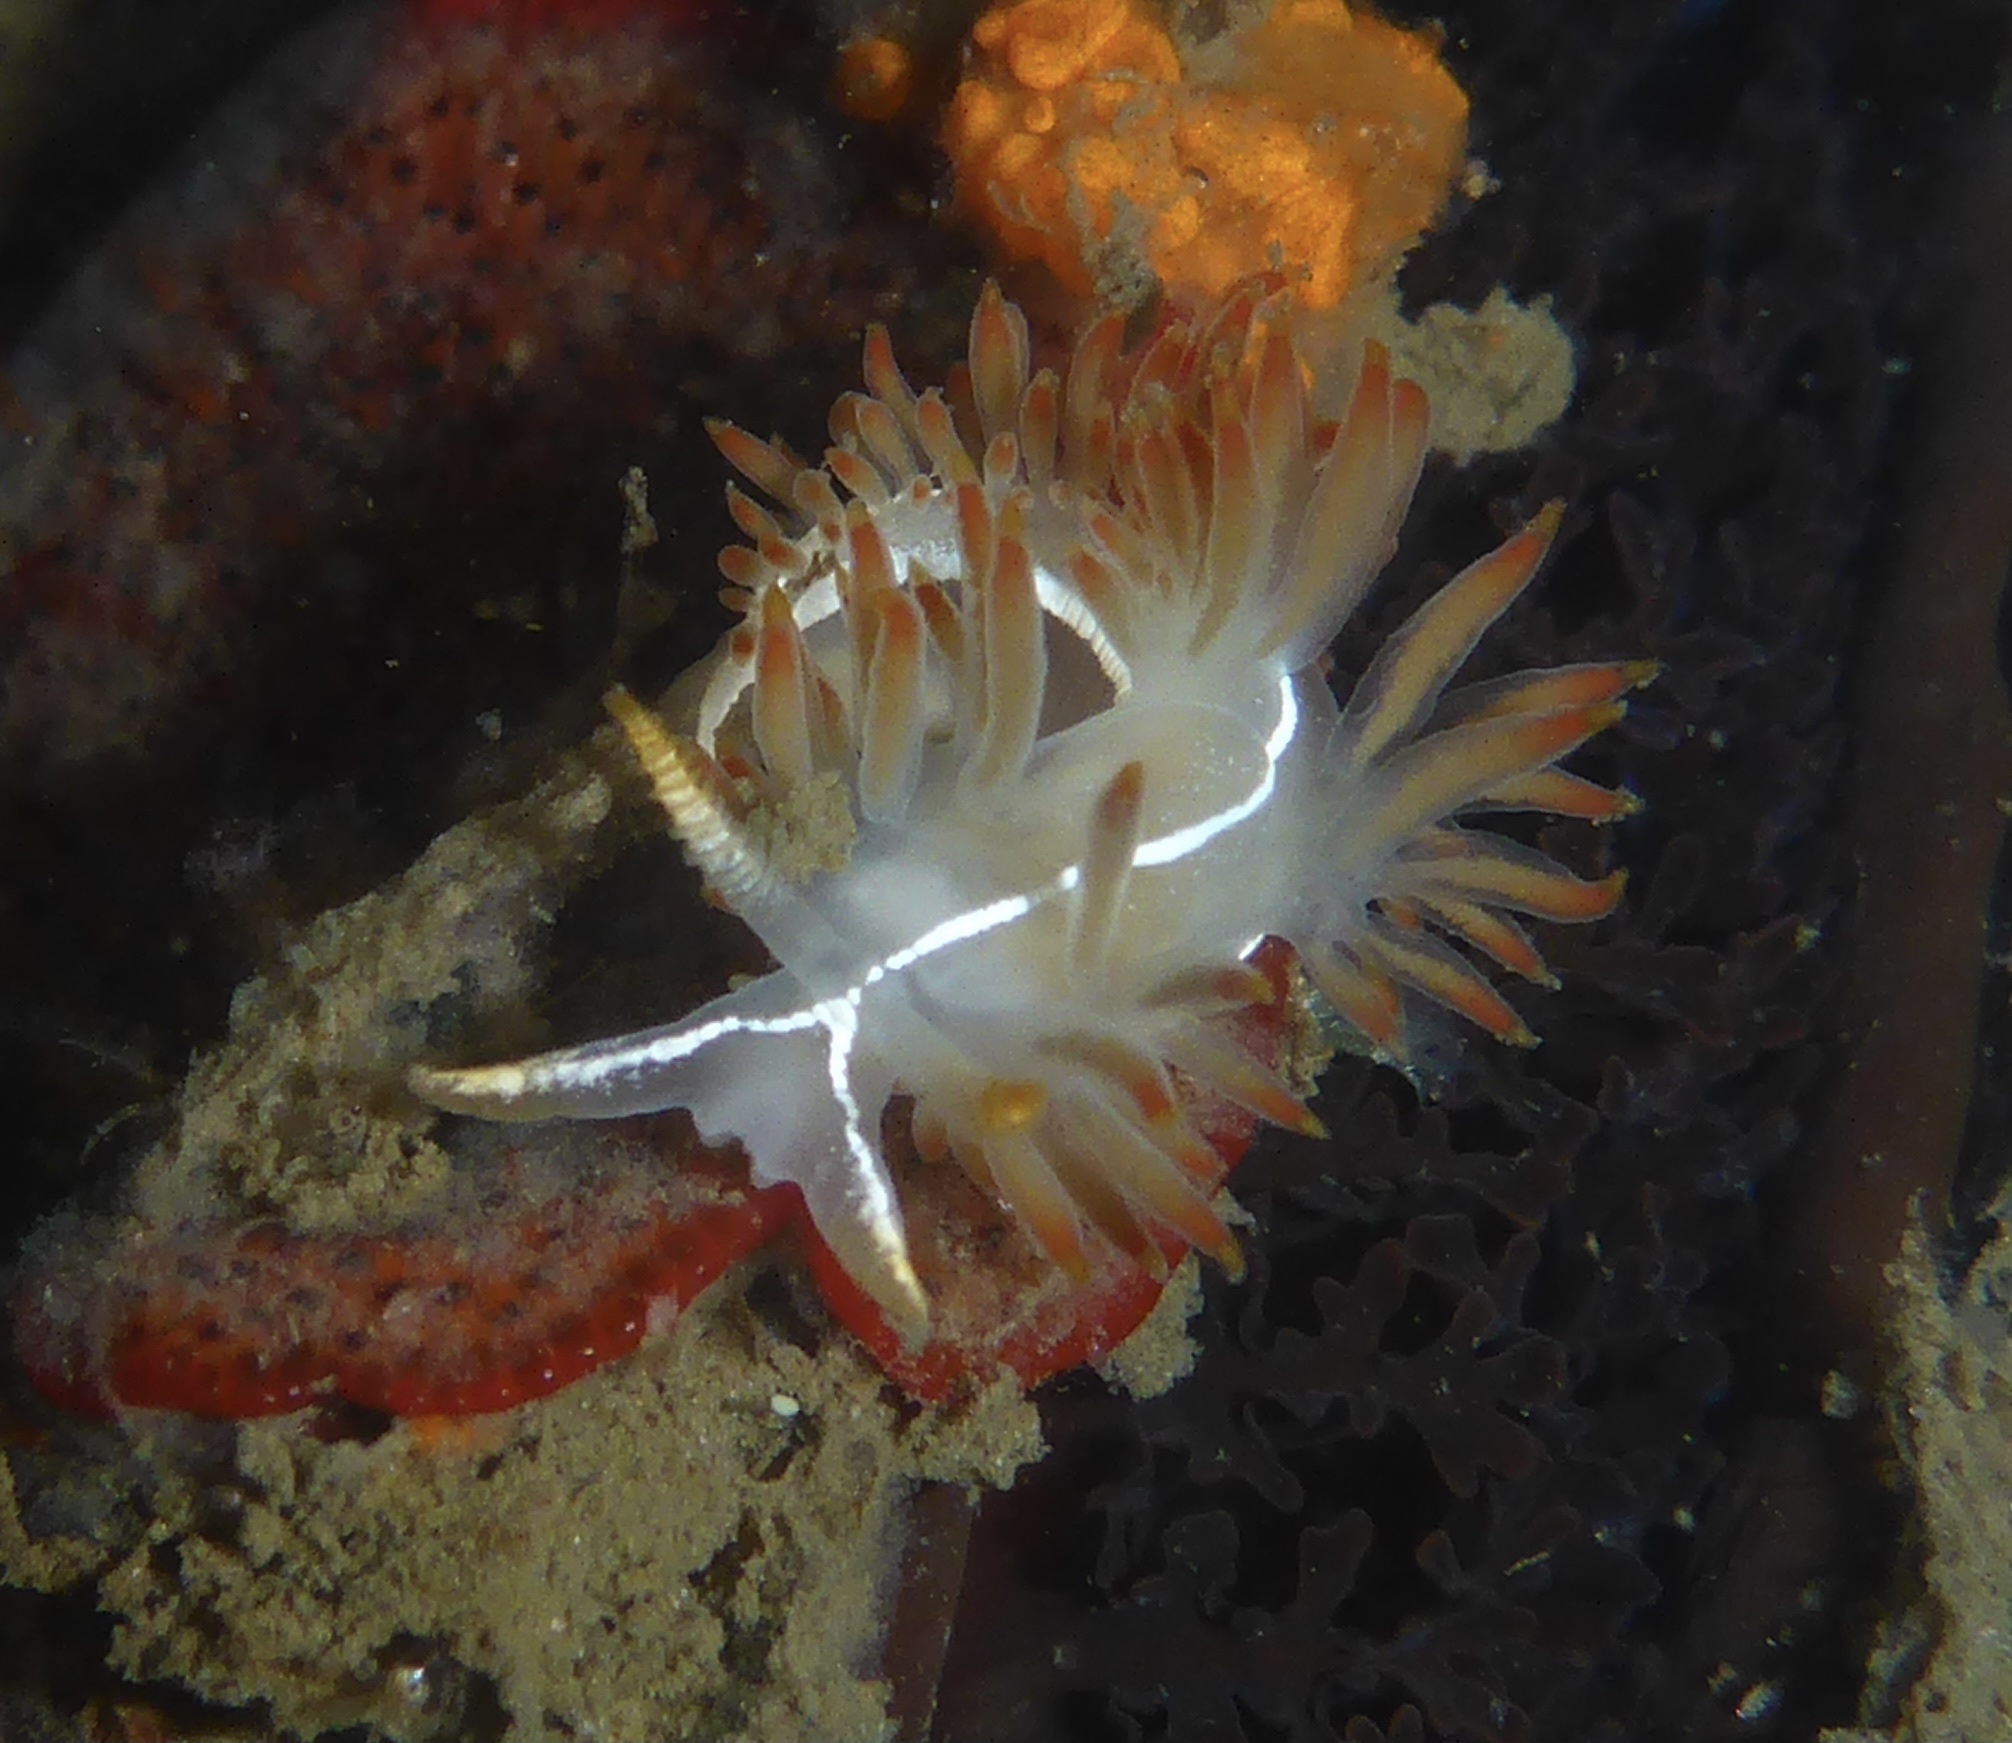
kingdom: Animalia
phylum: Mollusca
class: Gastropoda
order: Nudibranchia
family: Coryphellidae
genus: Coryphella
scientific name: Coryphella trilineata
